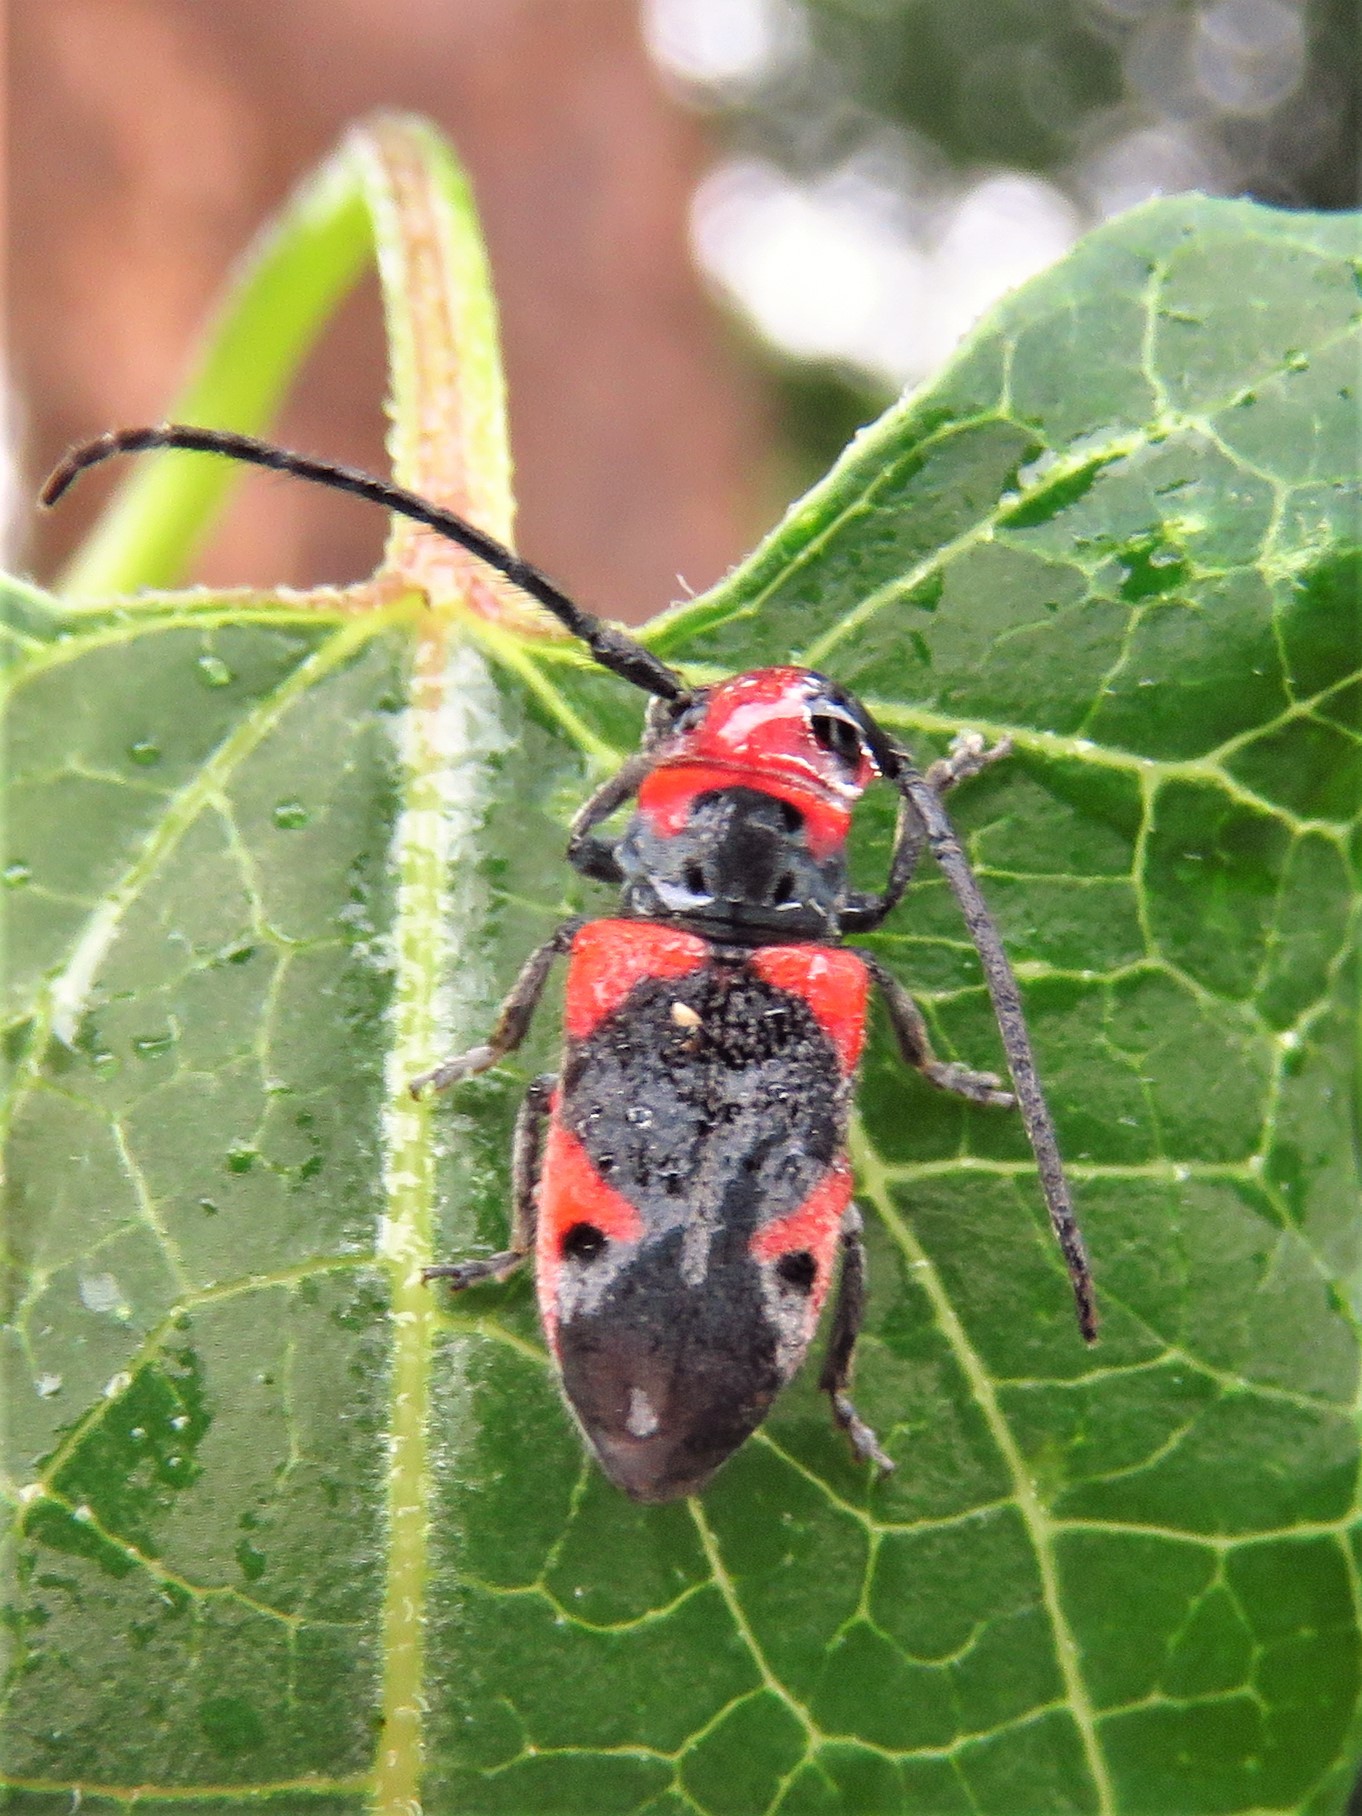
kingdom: Animalia
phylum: Arthropoda
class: Insecta
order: Coleoptera
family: Cerambycidae
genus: Tetraopes
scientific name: Tetraopes discoideus
